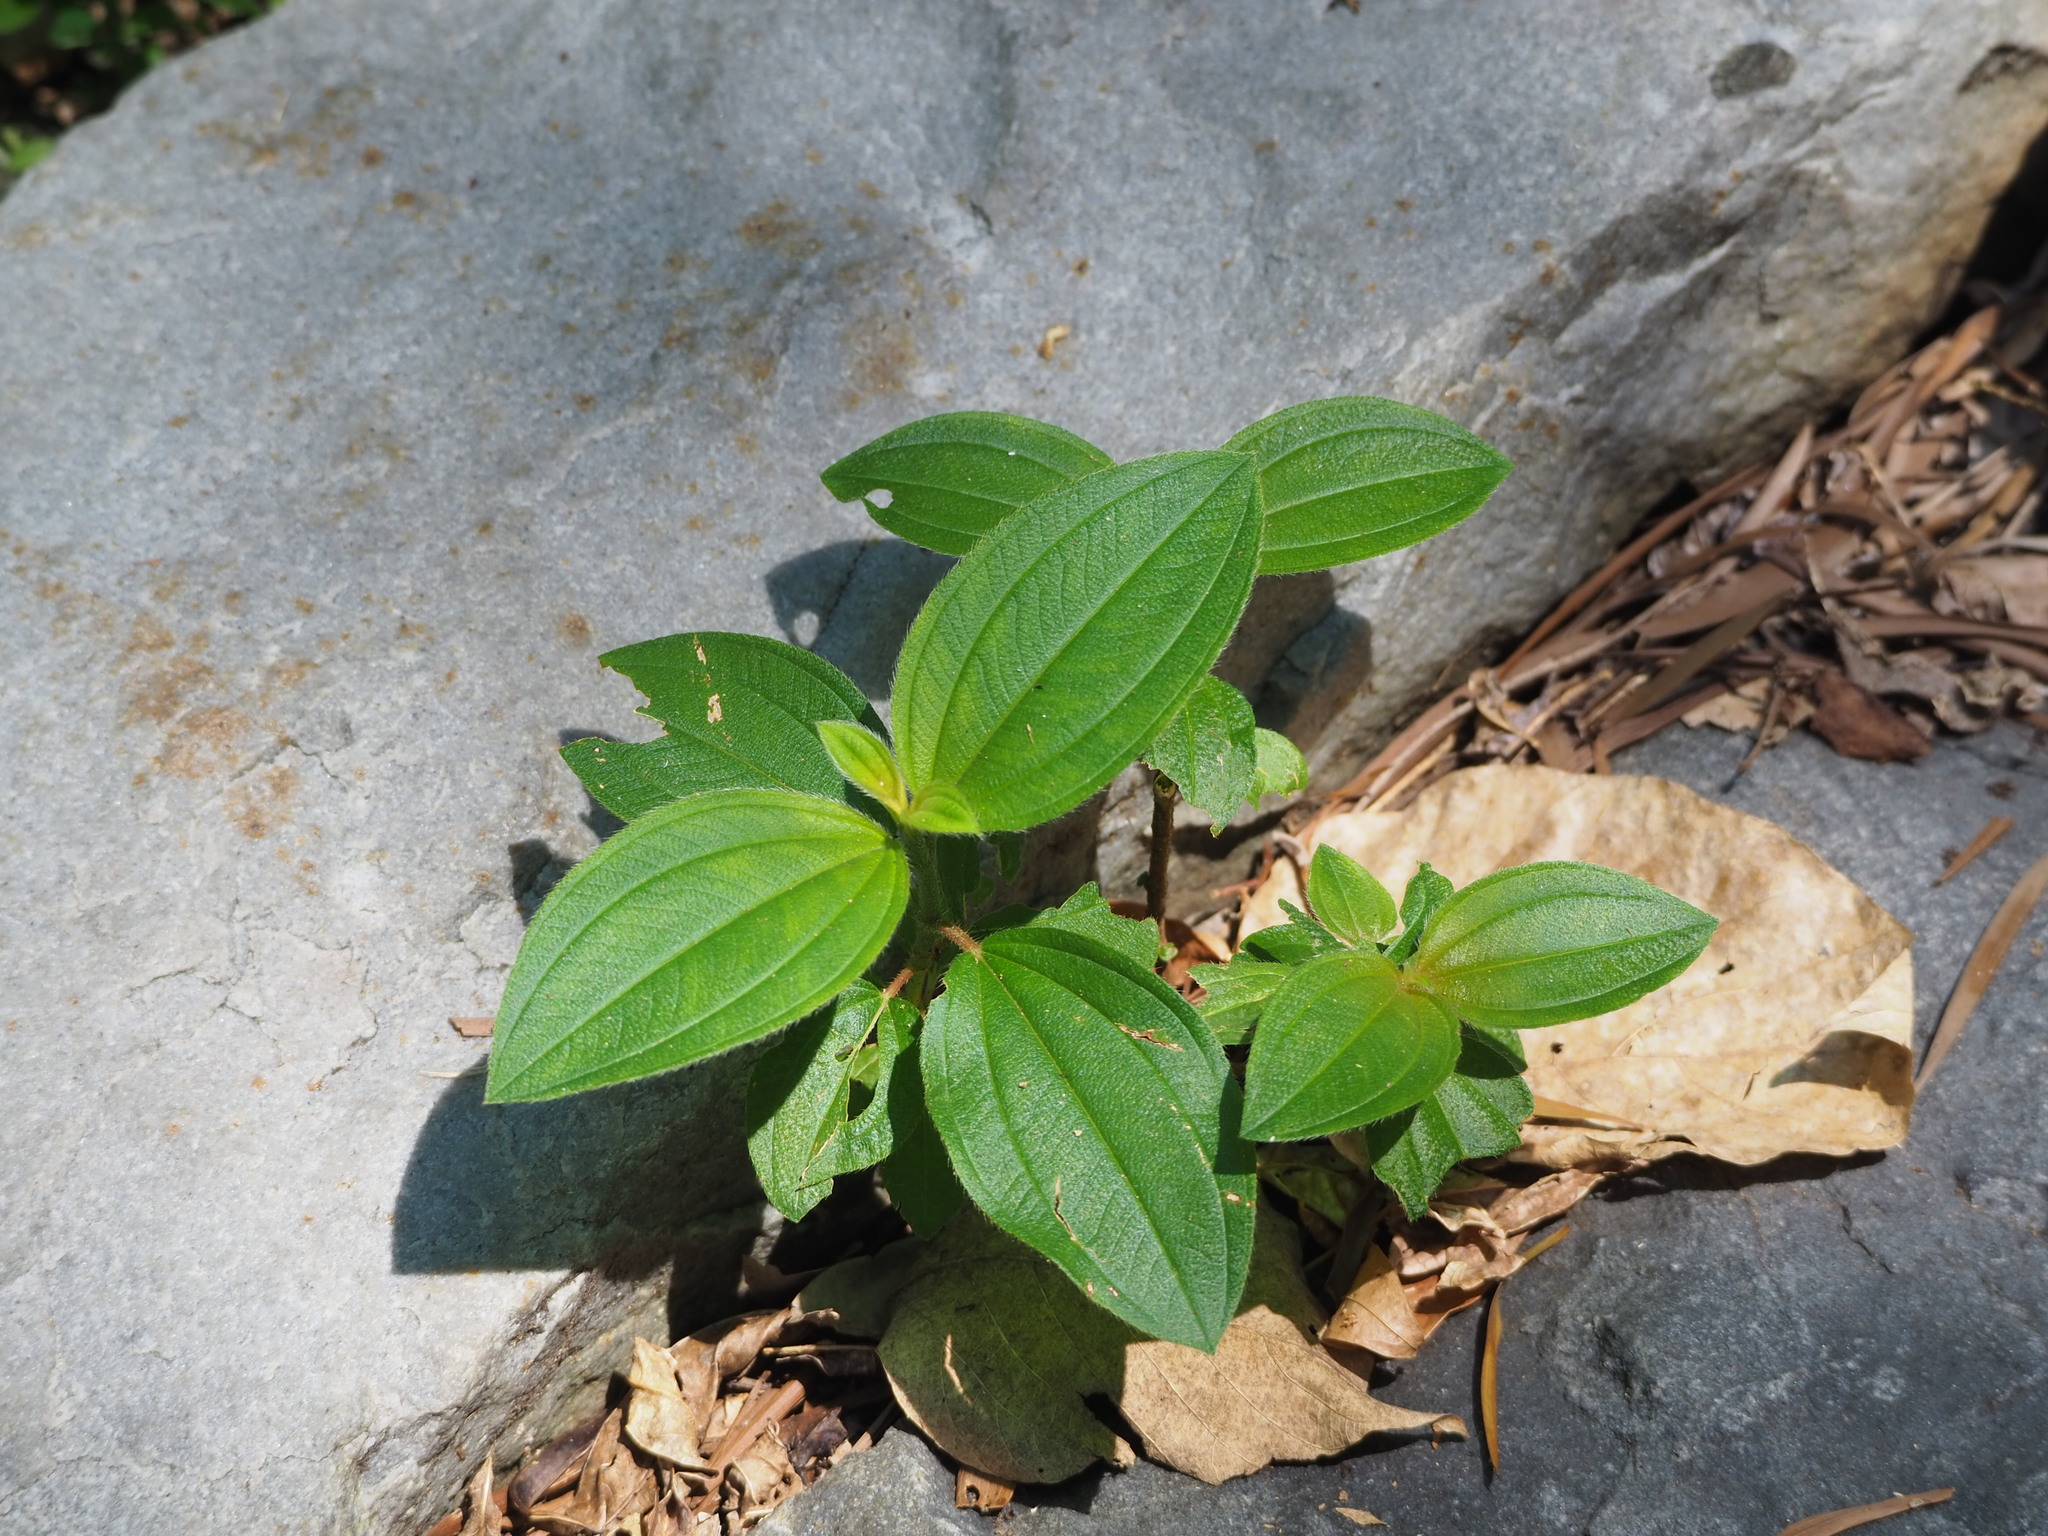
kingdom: Plantae
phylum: Tracheophyta
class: Magnoliopsida
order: Myrtales
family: Melastomataceae
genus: Melastoma
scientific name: Melastoma malabathricum
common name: Indian-rhododendron
